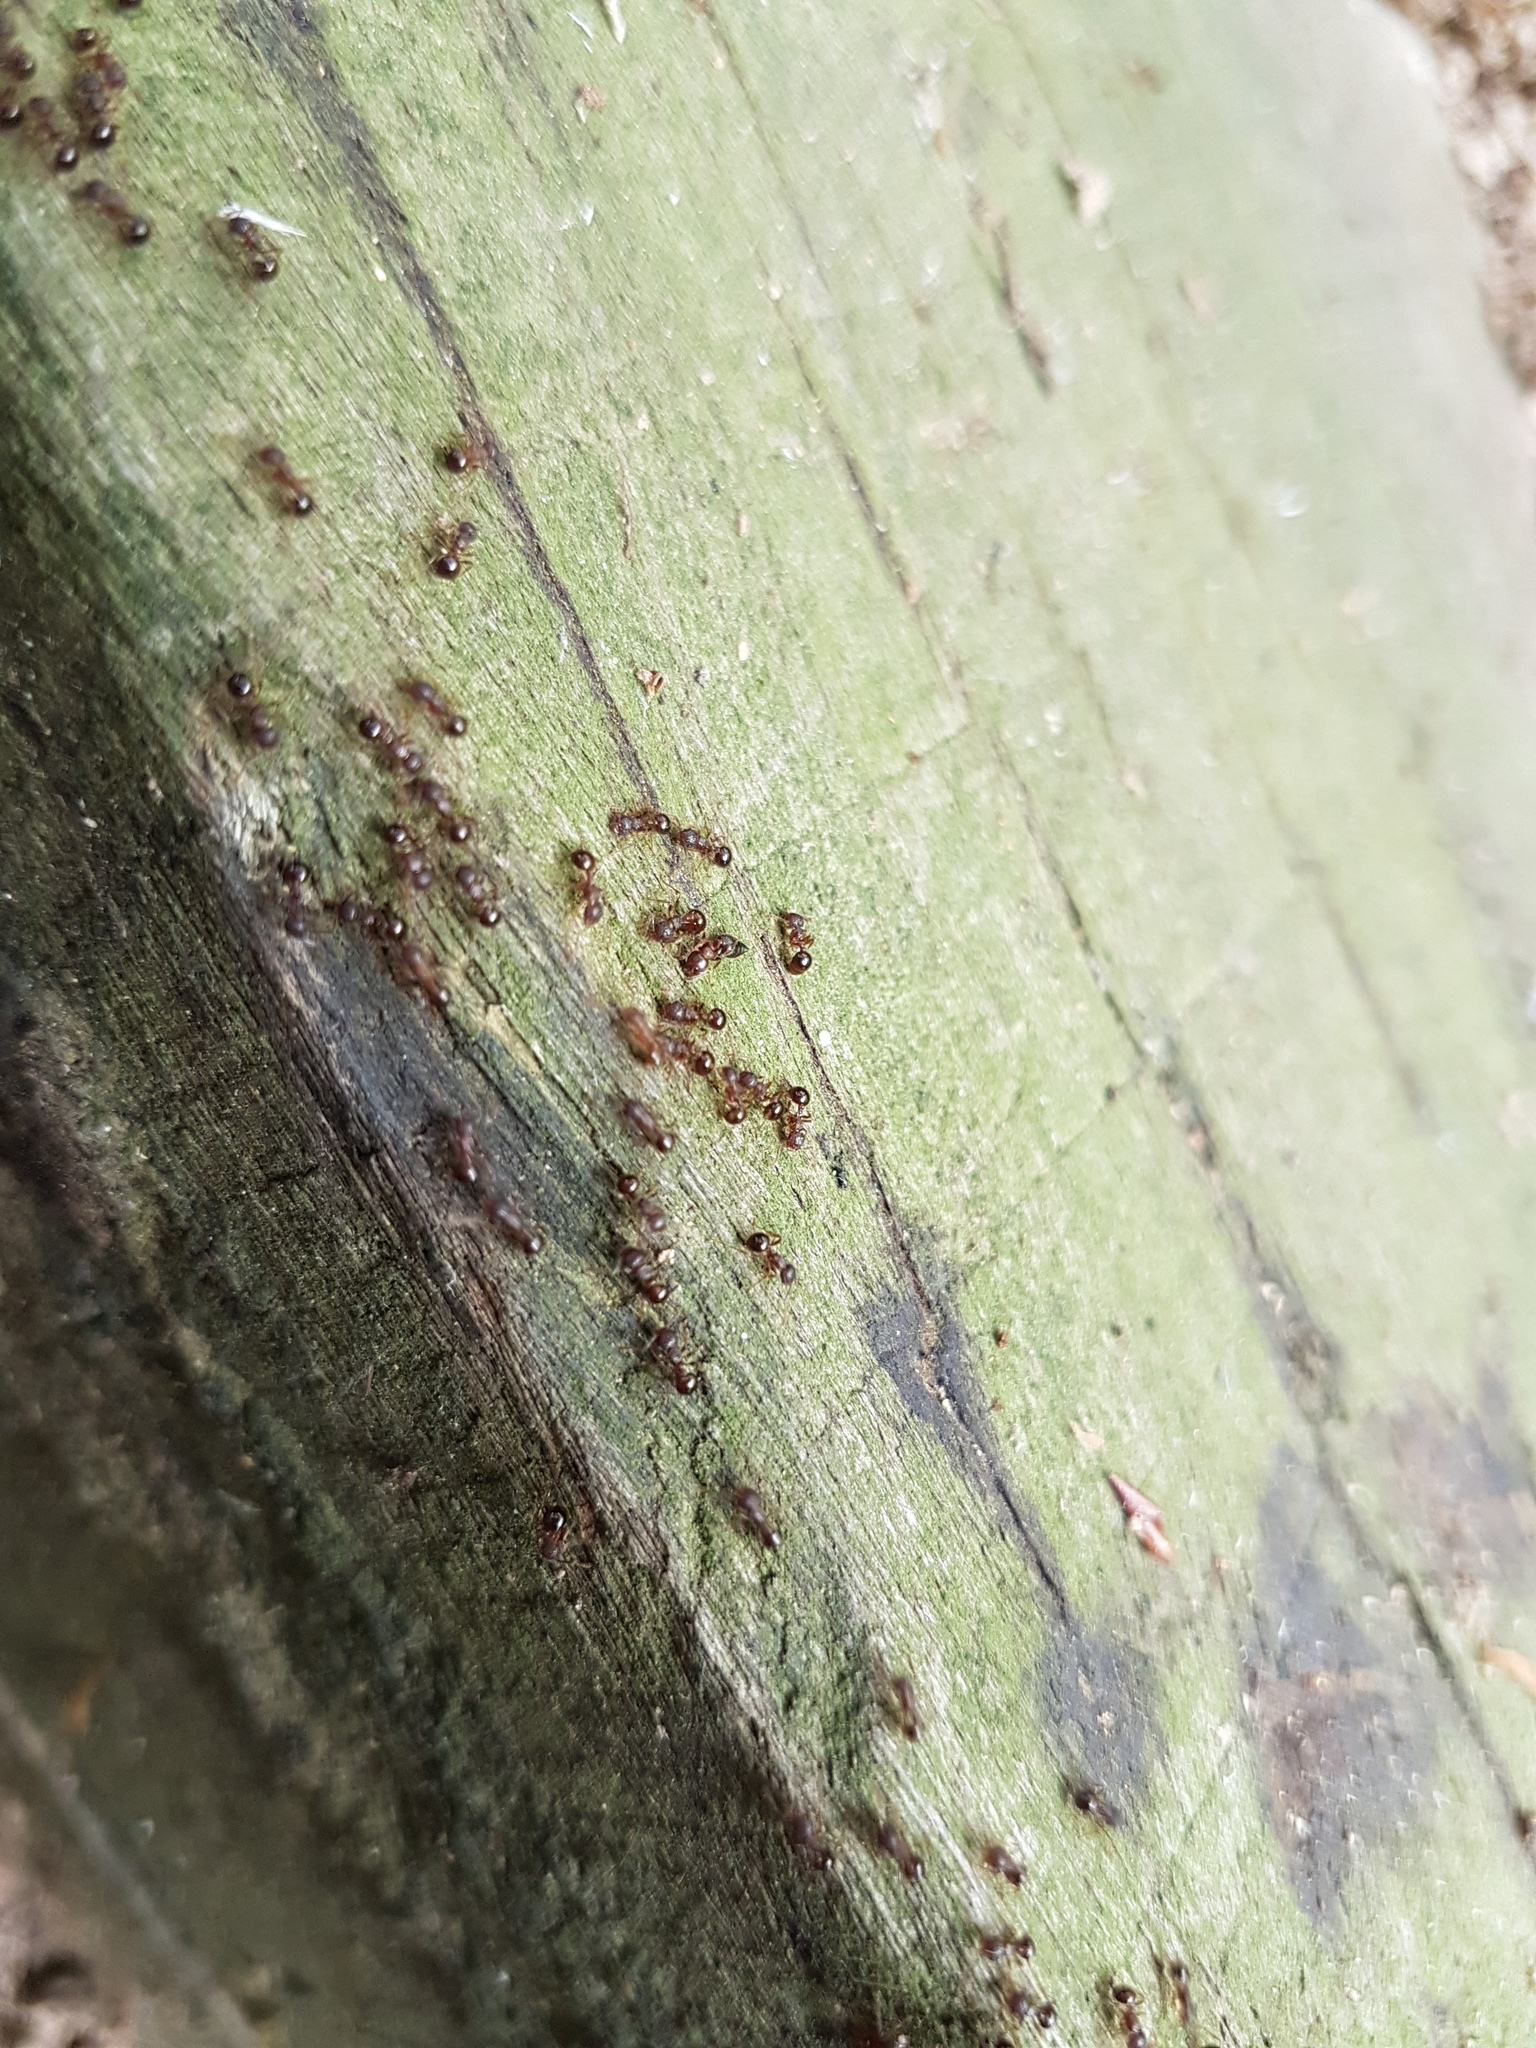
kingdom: Animalia
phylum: Arthropoda
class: Insecta
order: Hymenoptera
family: Formicidae
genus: Pristomyrmex
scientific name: Pristomyrmex punctatus
